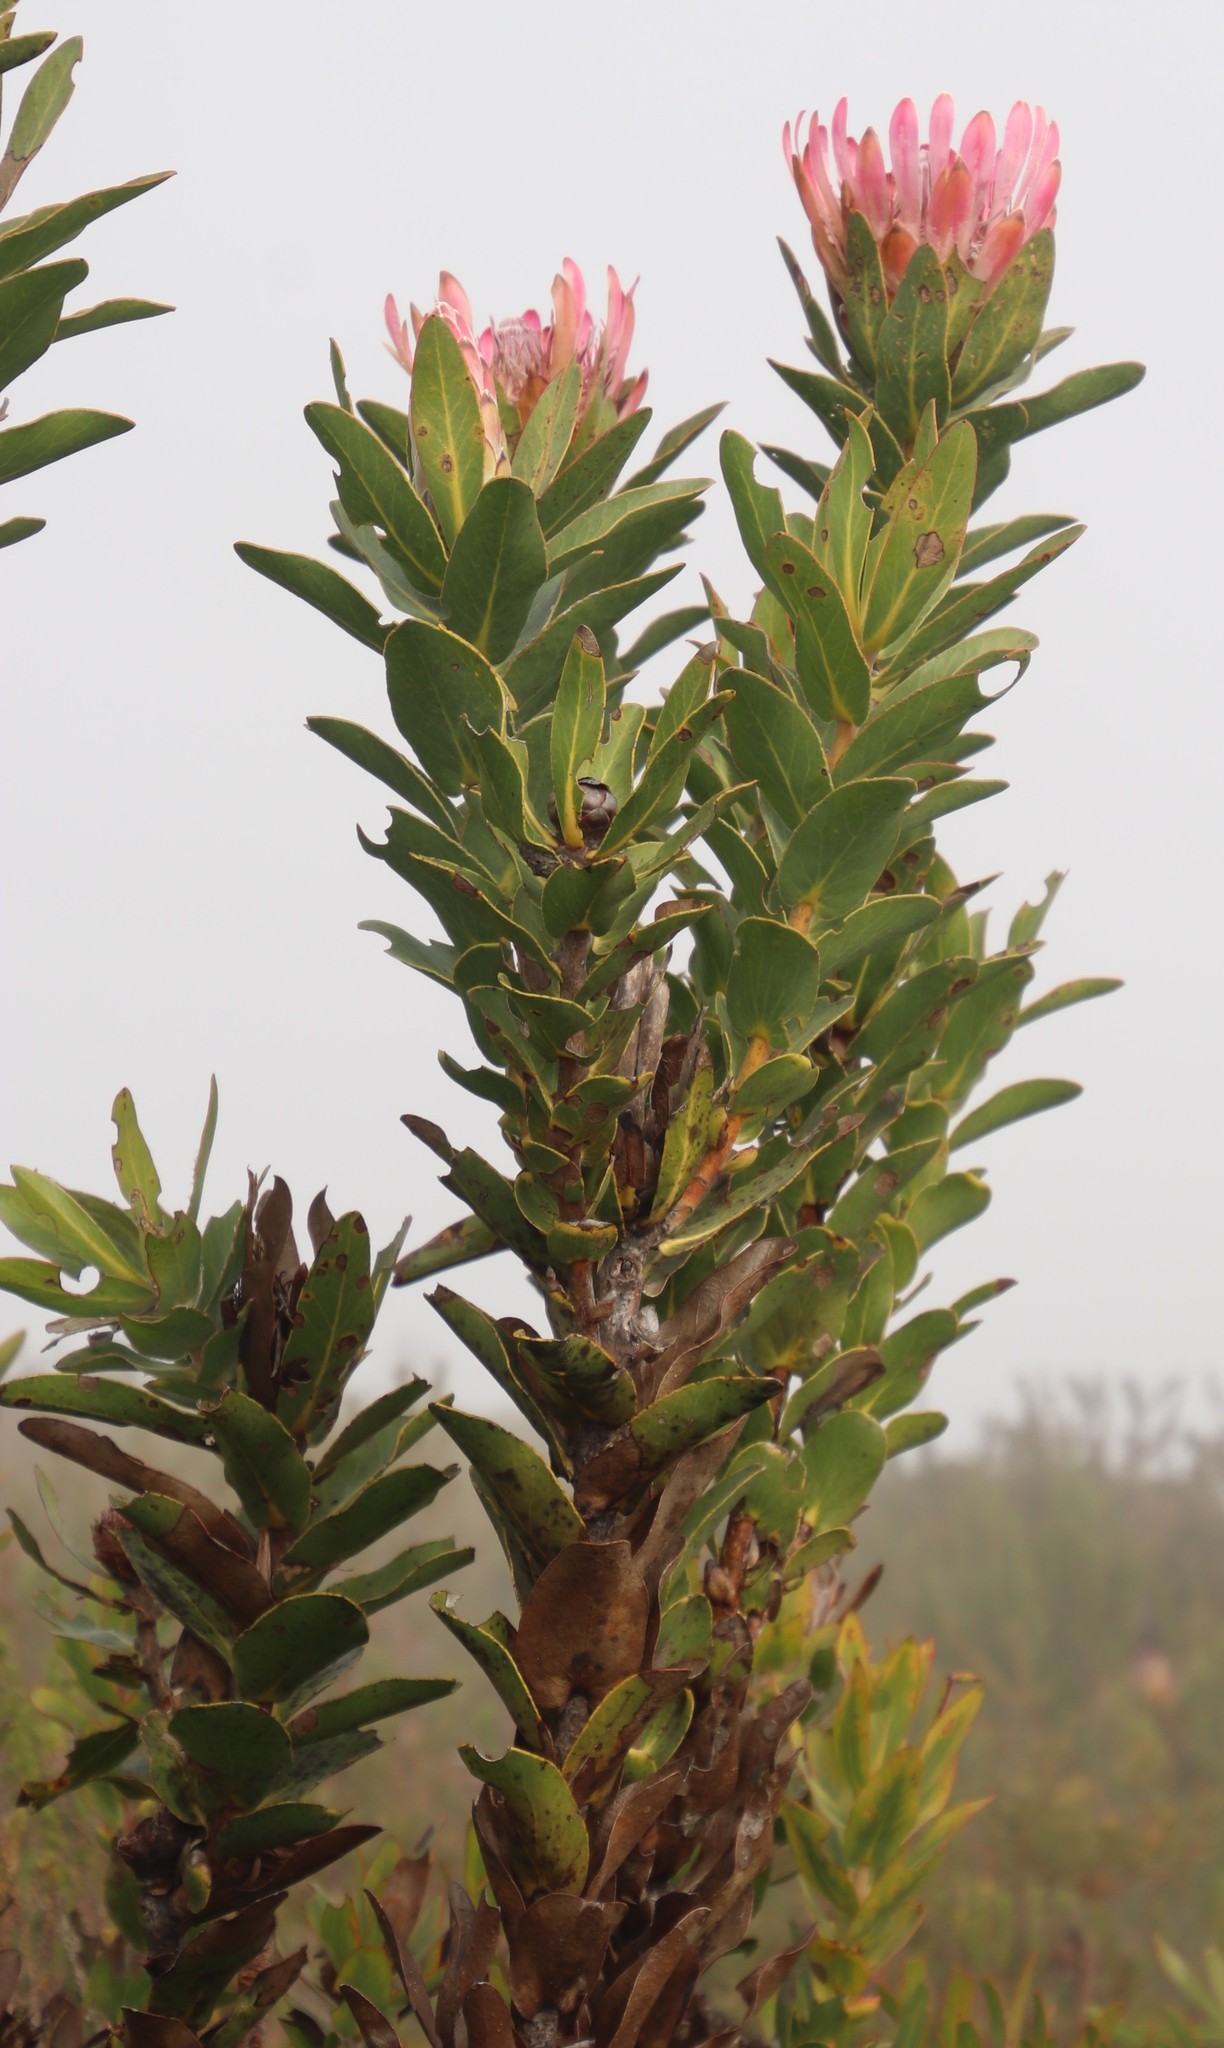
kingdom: Plantae
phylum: Tracheophyta
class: Magnoliopsida
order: Proteales
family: Proteaceae
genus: Protea
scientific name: Protea compacta
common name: Bot river protea
